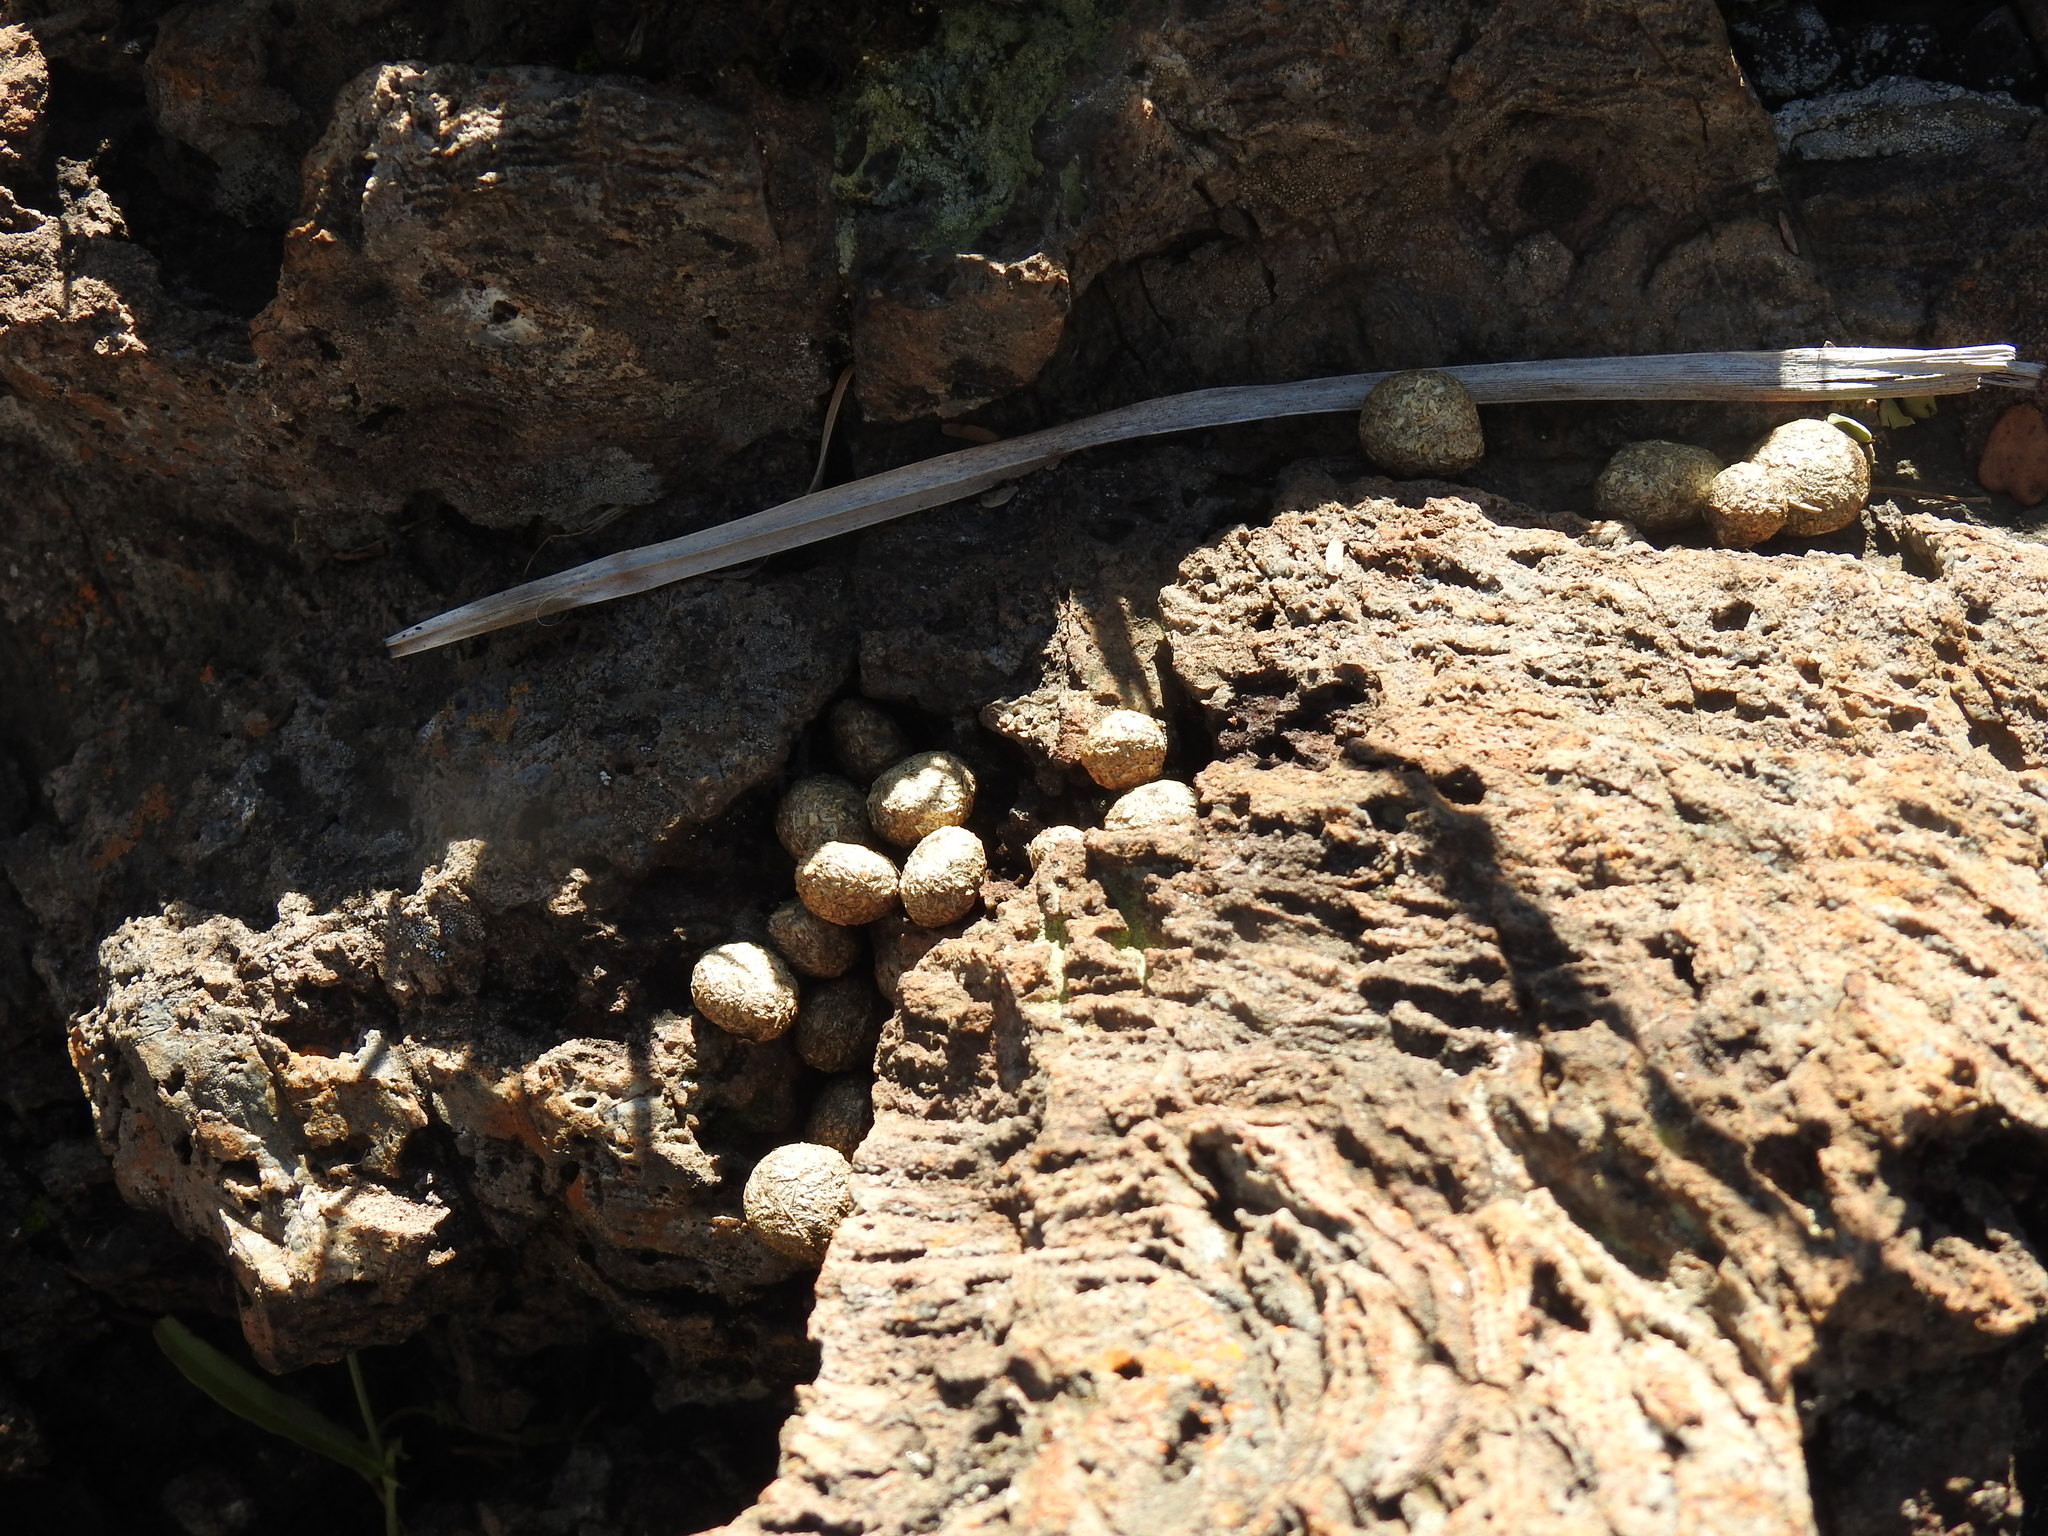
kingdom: Animalia
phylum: Chordata
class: Mammalia
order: Lagomorpha
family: Leporidae
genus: Pronolagus
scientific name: Pronolagus randensis
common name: Jameson's red rock hare
